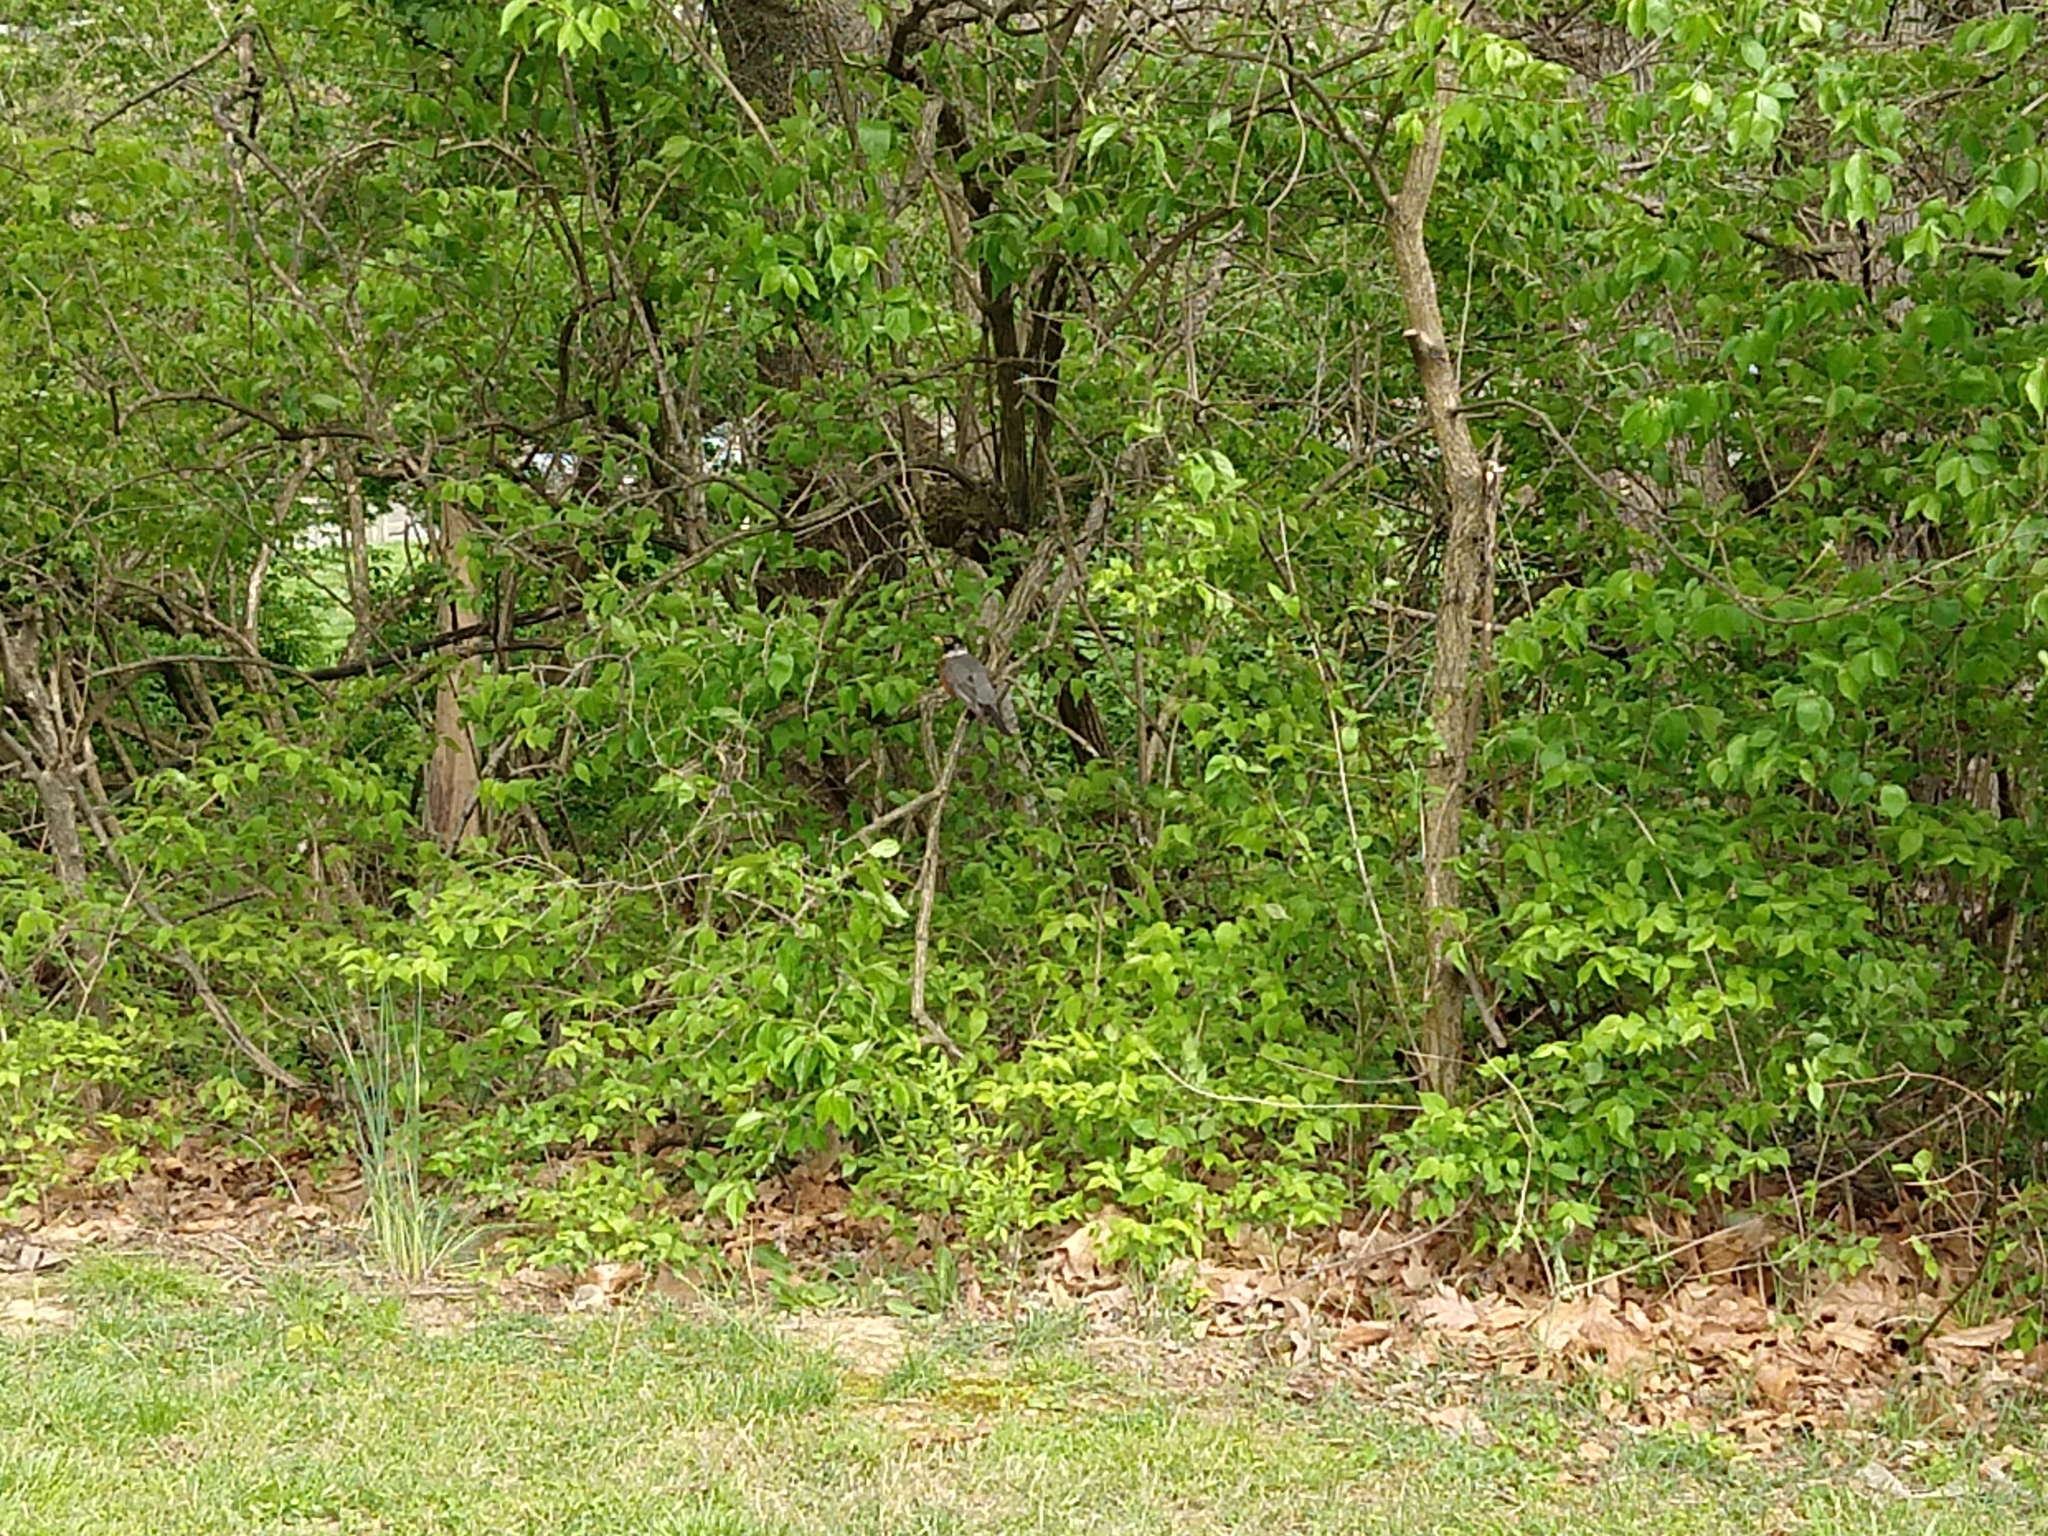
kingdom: Animalia
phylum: Chordata
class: Aves
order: Passeriformes
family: Turdidae
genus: Turdus
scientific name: Turdus migratorius
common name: American robin
